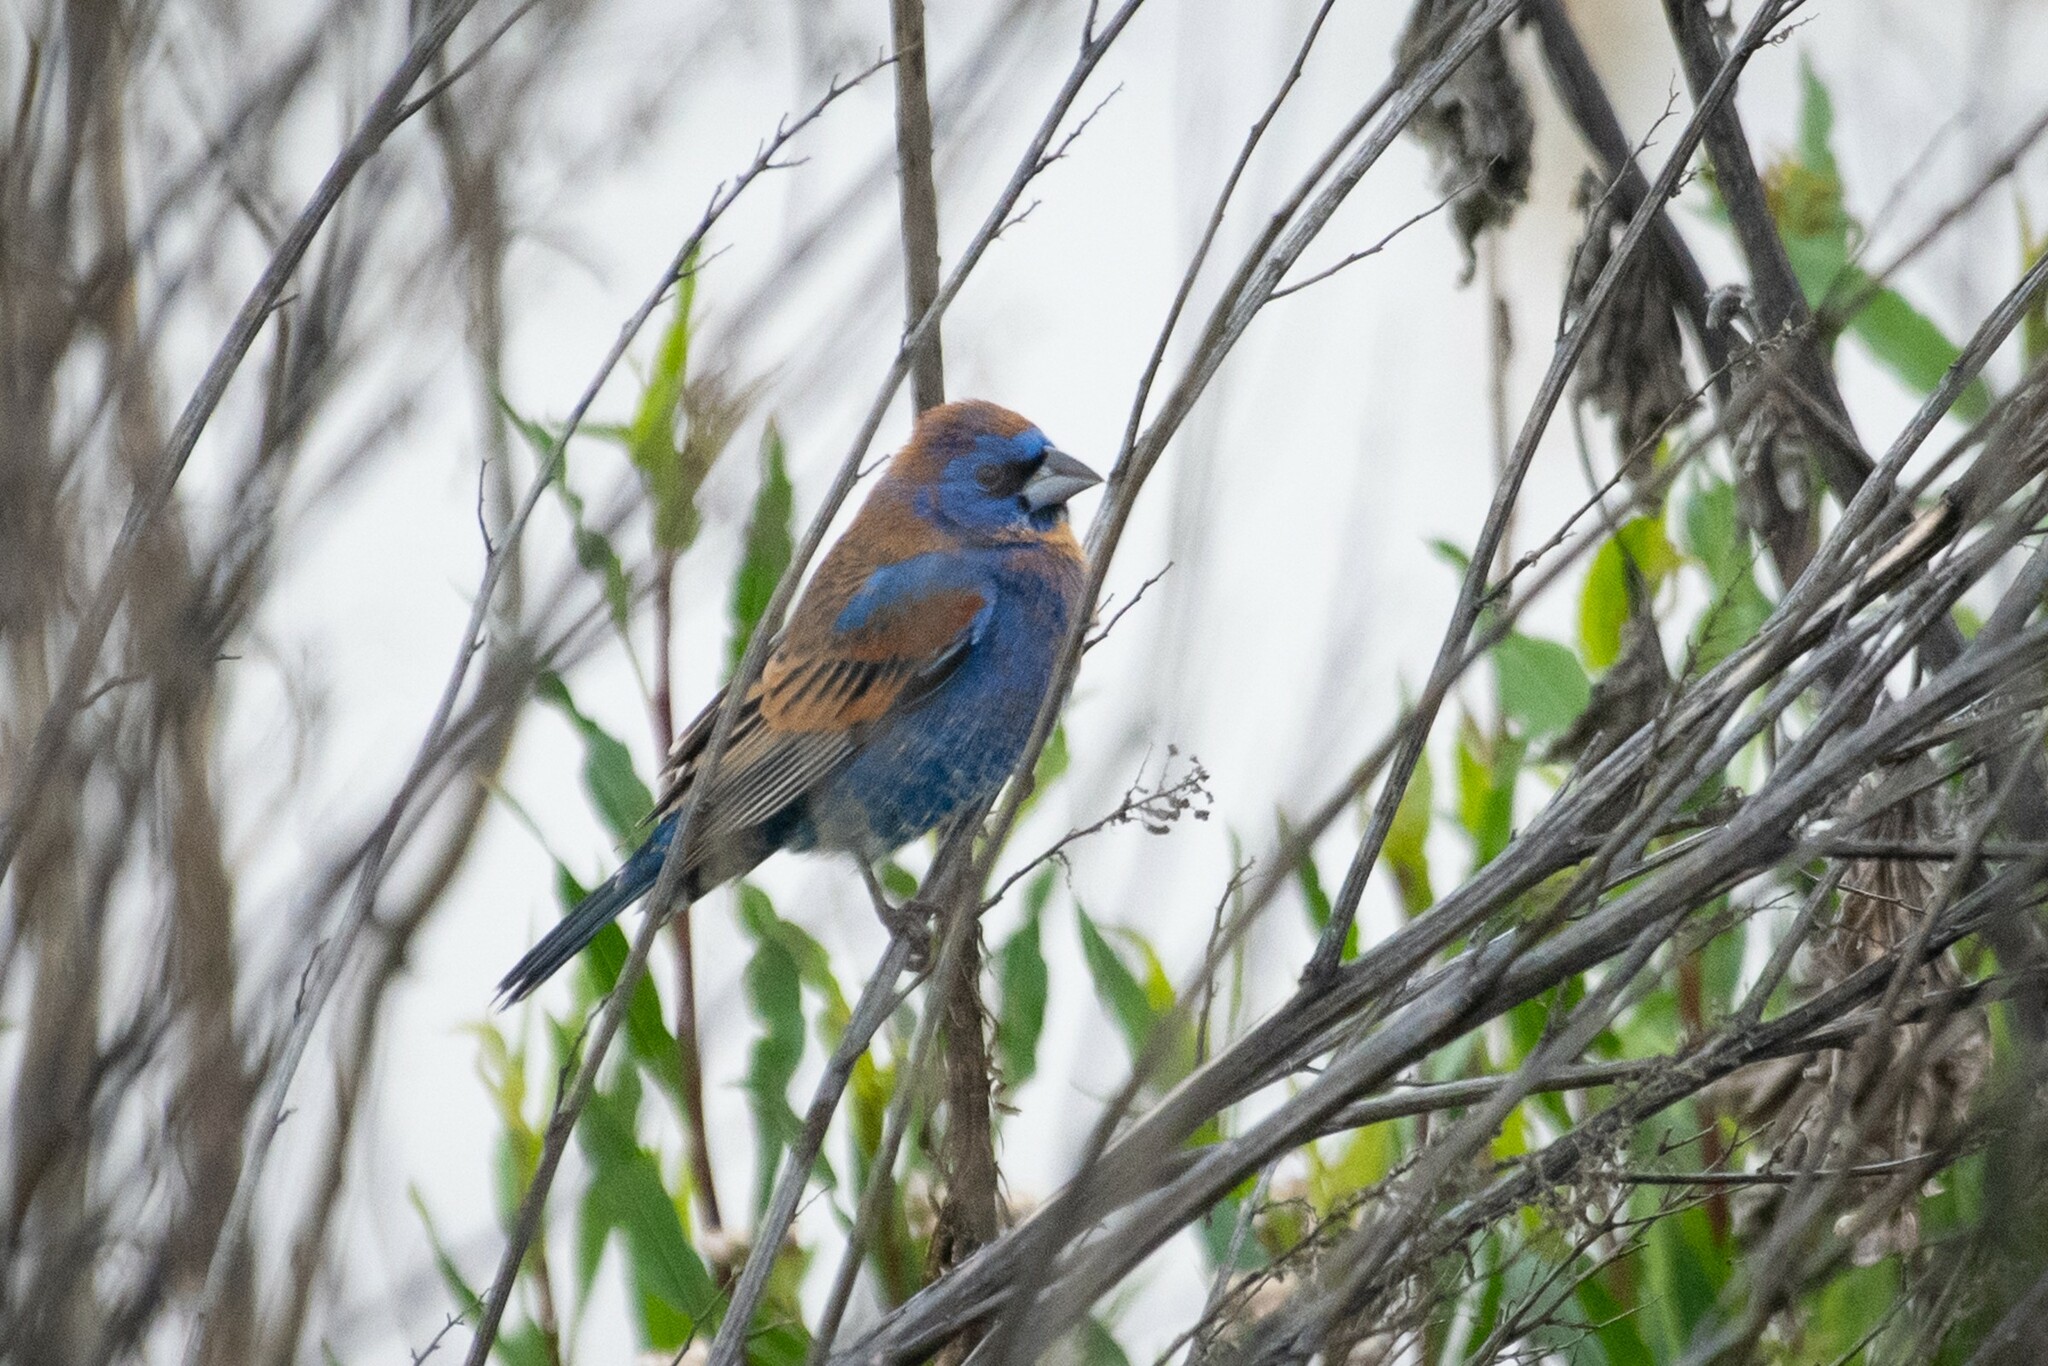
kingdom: Animalia
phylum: Chordata
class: Aves
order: Passeriformes
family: Cardinalidae
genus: Passerina
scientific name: Passerina caerulea
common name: Blue grosbeak
